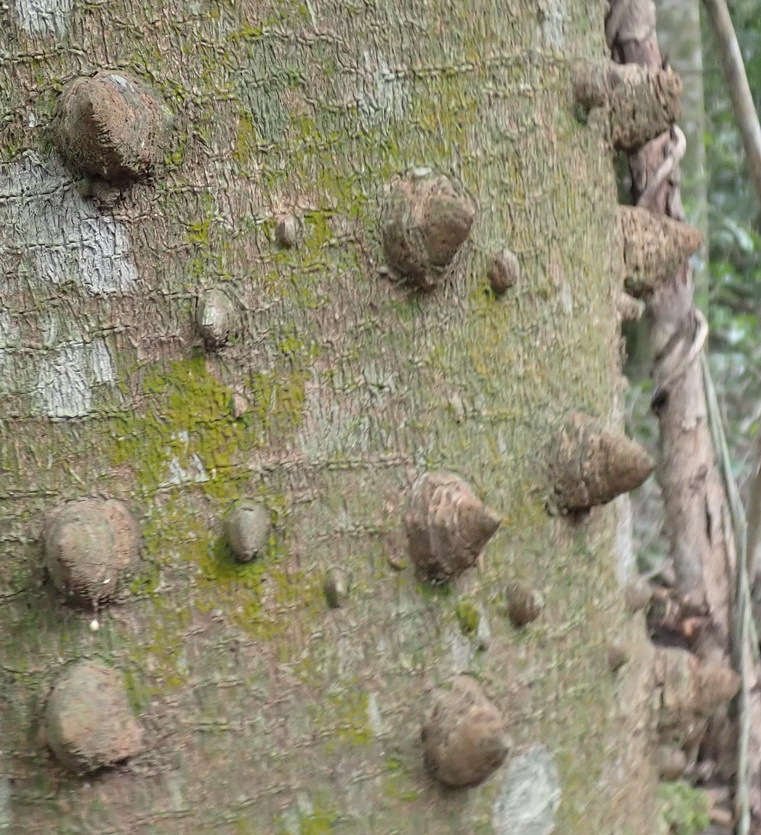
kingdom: Plantae
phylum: Tracheophyta
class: Magnoliopsida
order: Sapindales
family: Rutaceae
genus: Zanthoxylum
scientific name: Zanthoxylum davyi
